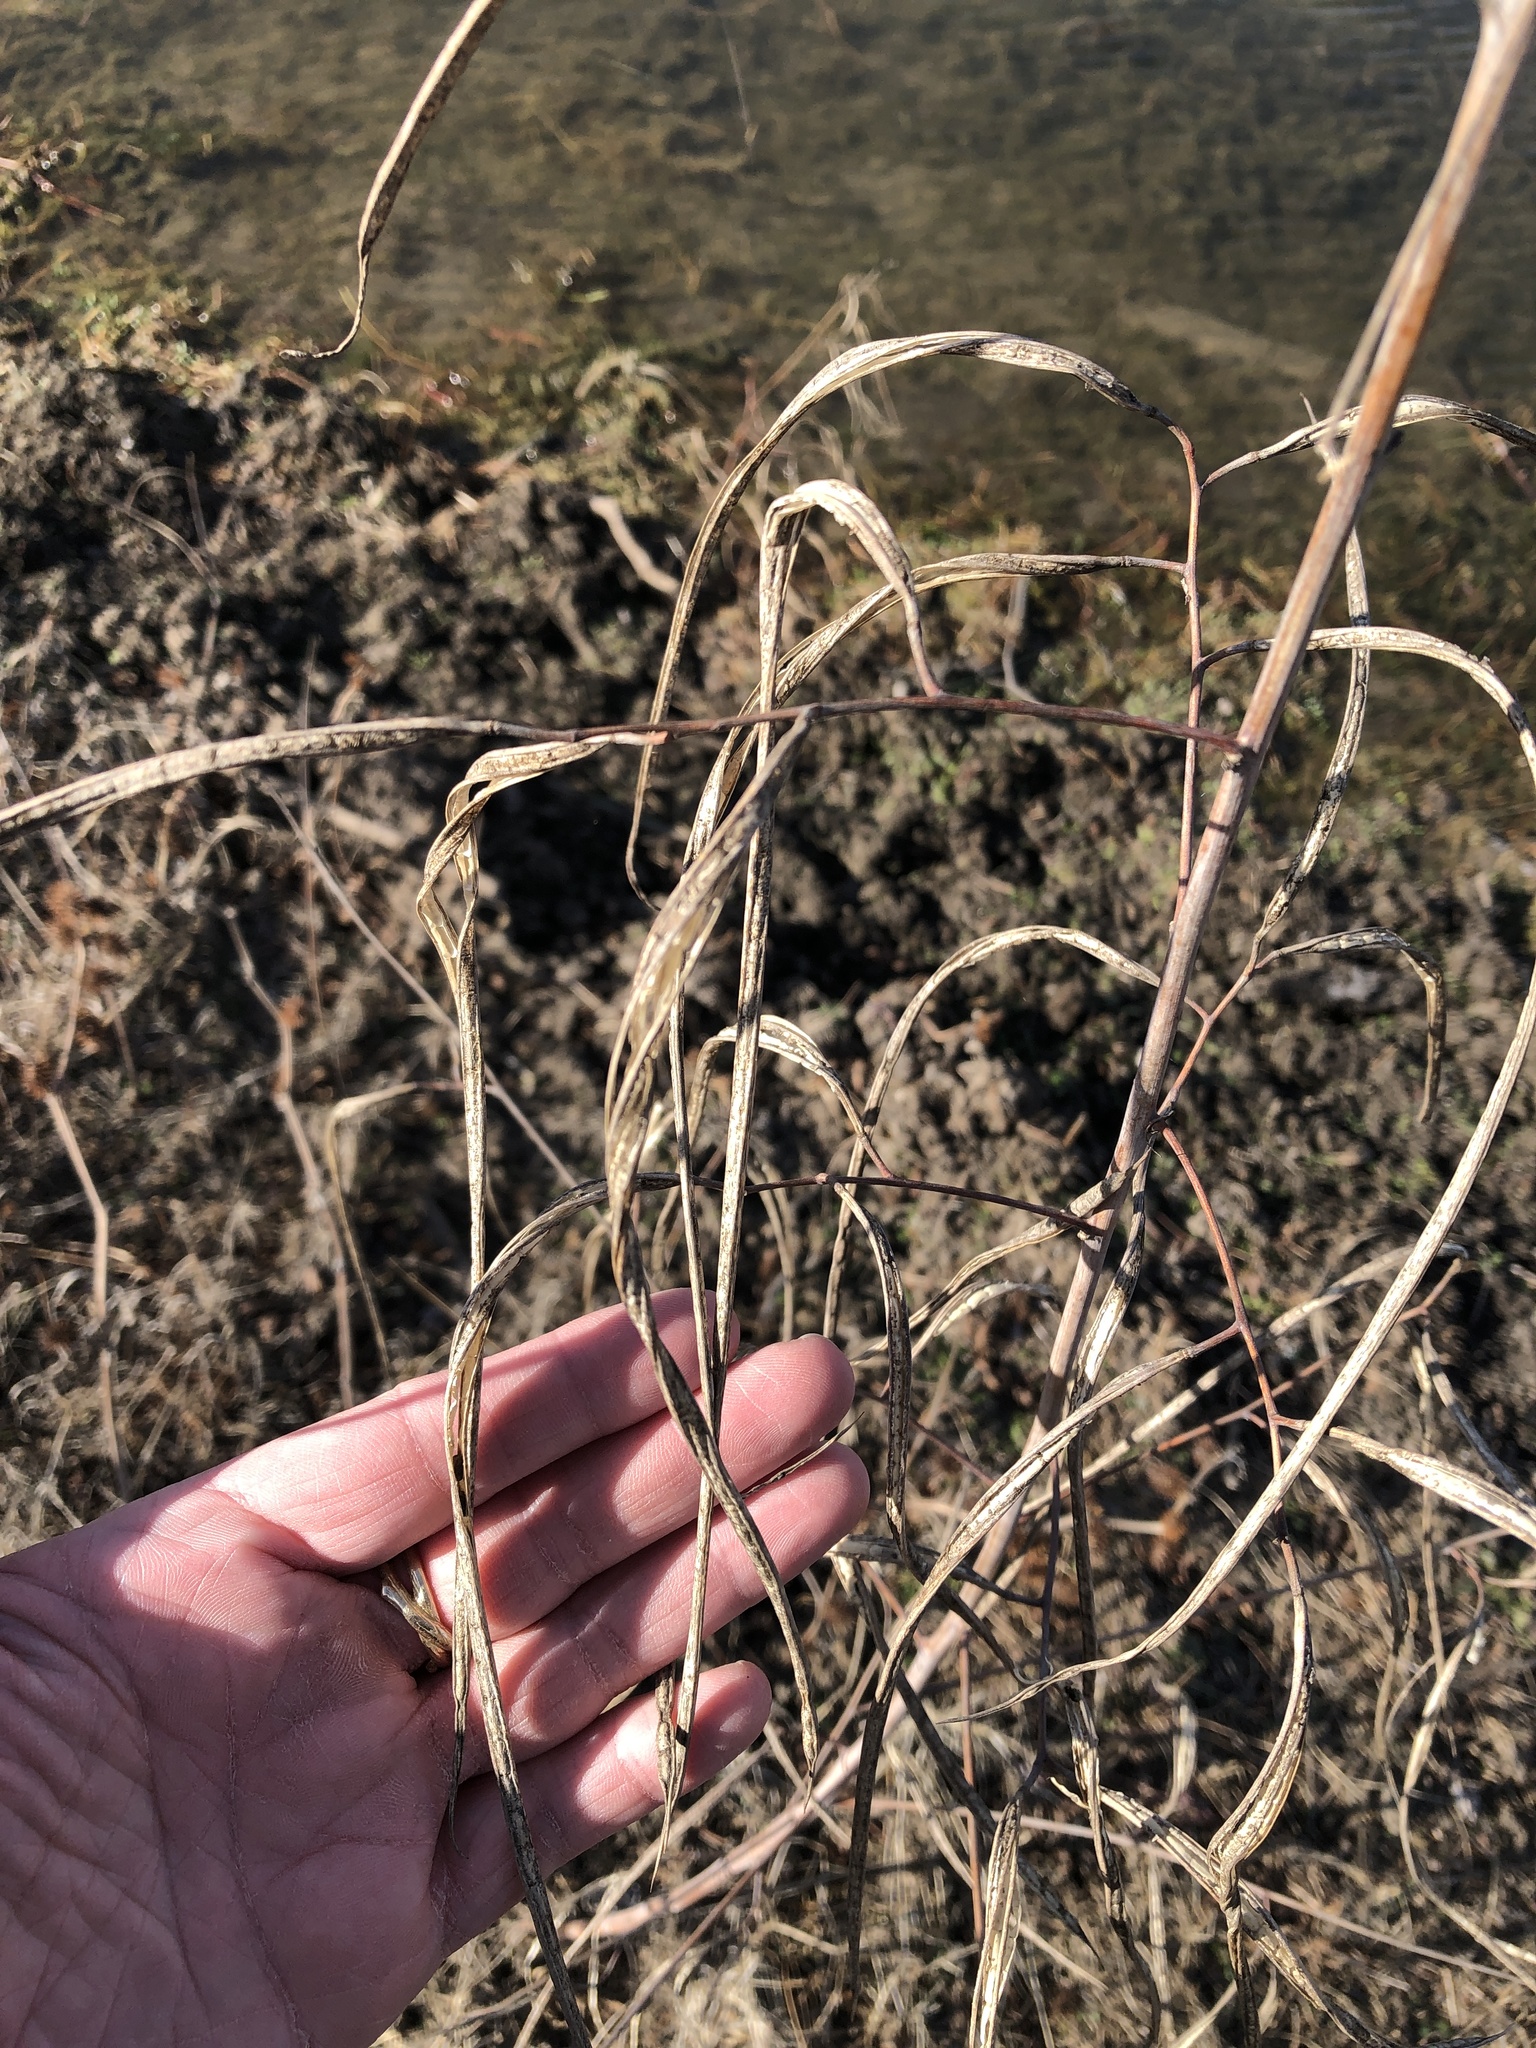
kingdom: Plantae
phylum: Tracheophyta
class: Magnoliopsida
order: Fabales
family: Fabaceae
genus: Sesbania
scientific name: Sesbania herbacea
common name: Bigpod sesbania
